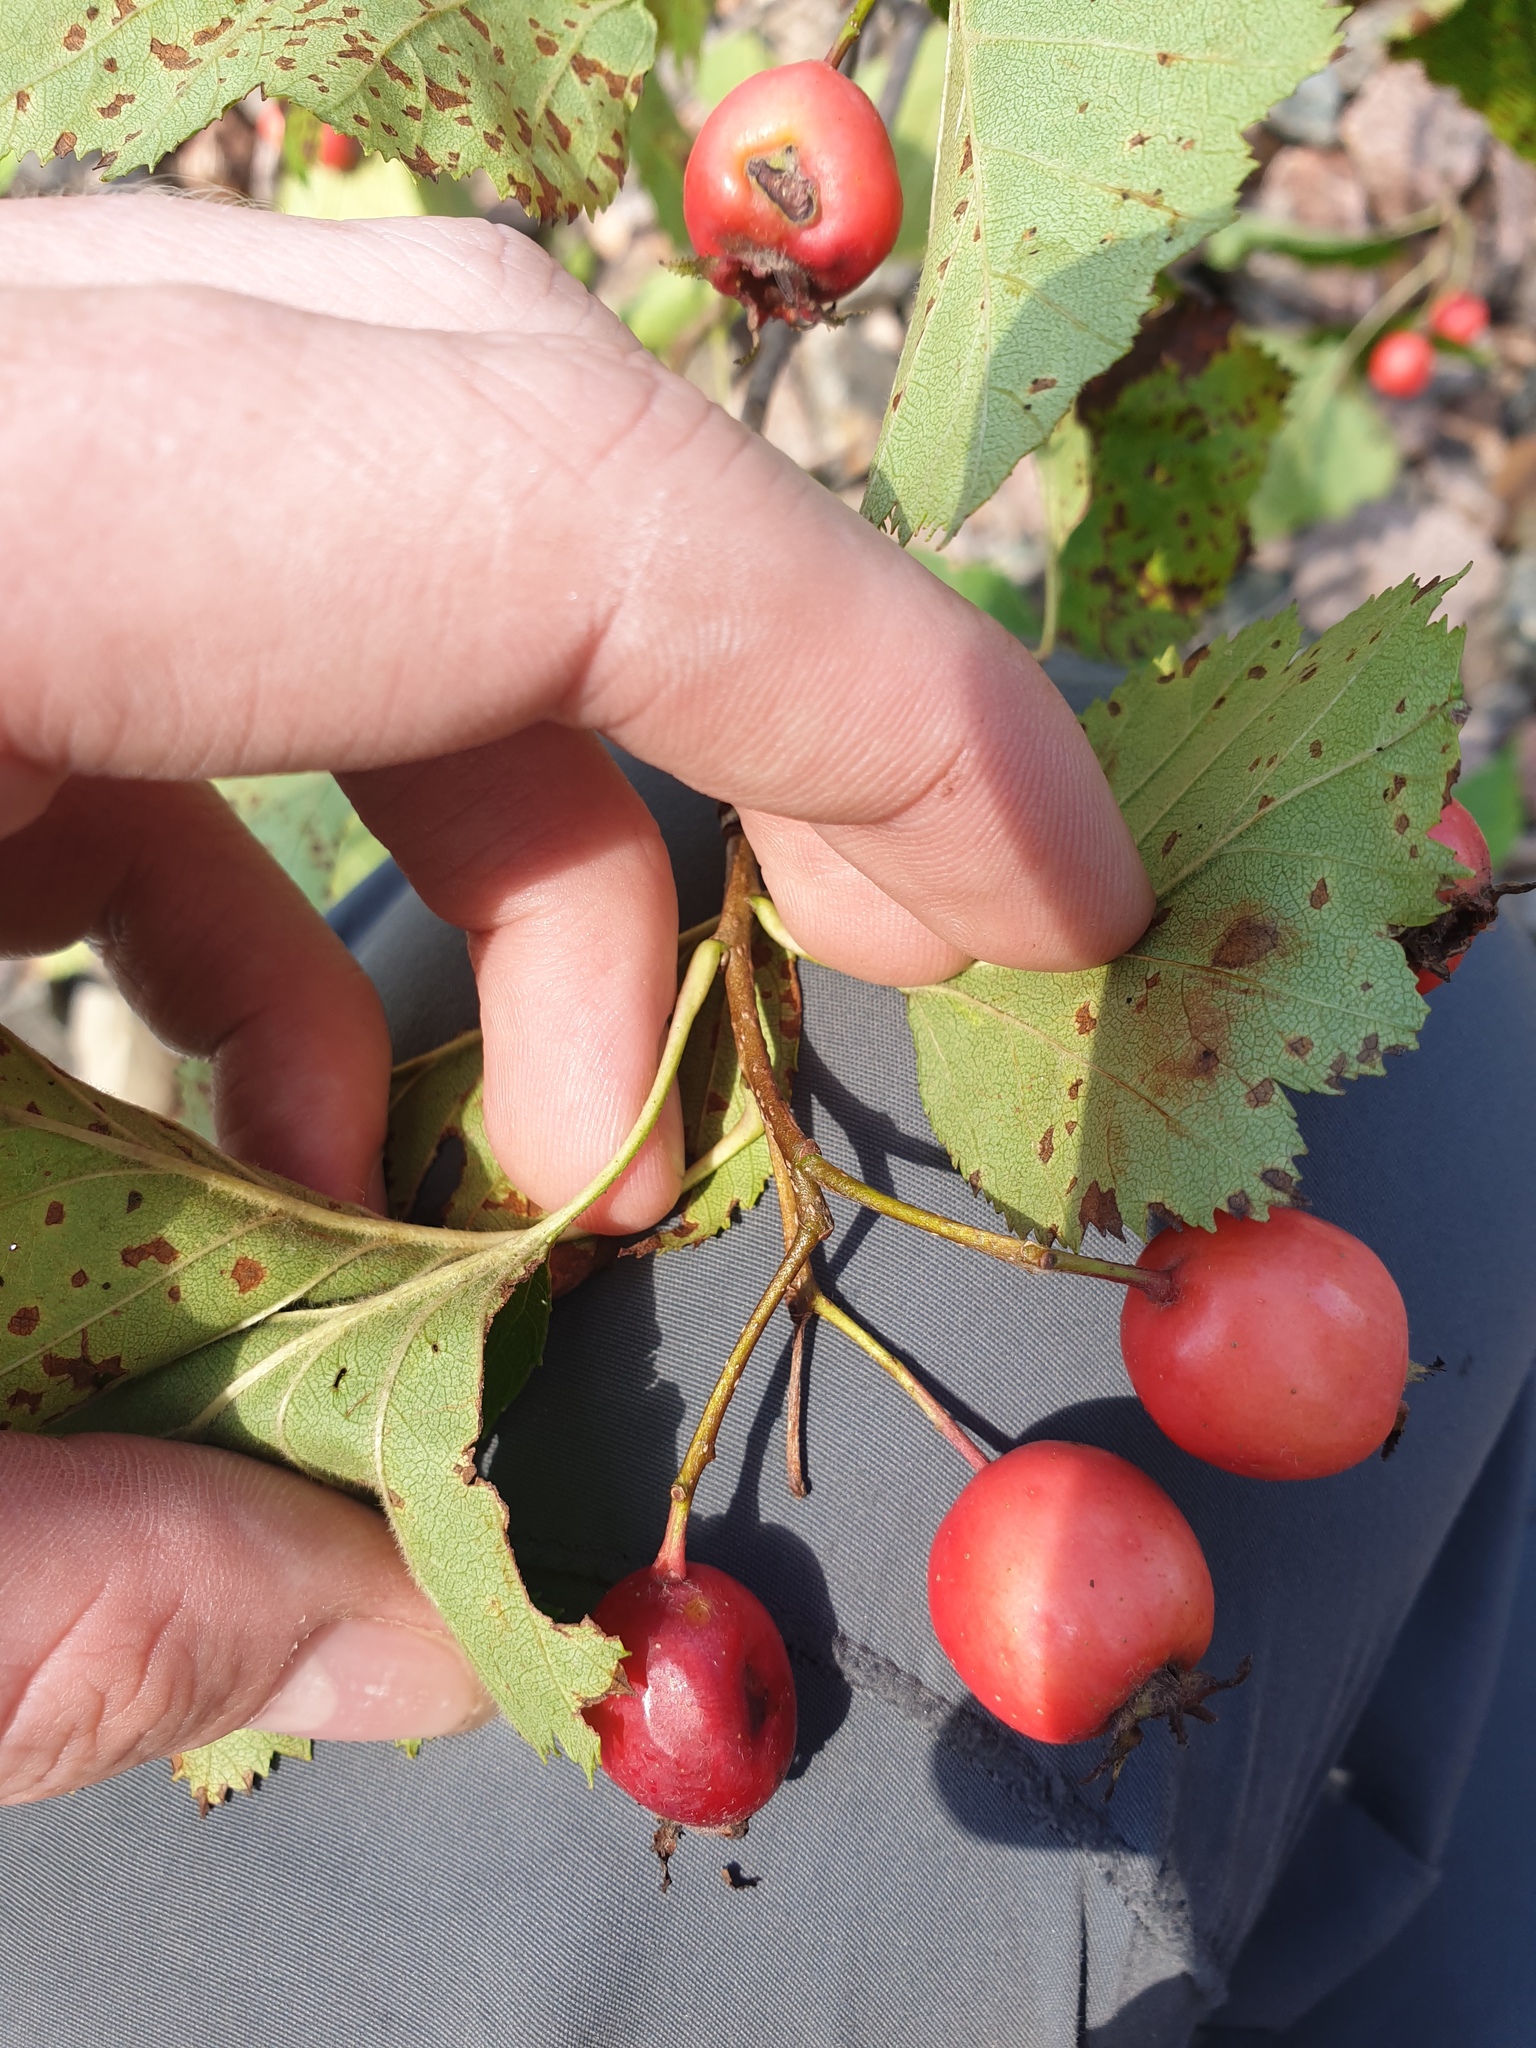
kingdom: Plantae
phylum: Tracheophyta
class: Magnoliopsida
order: Rosales
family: Rosaceae
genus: Crataegus
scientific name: Crataegus submollis
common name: Hairy cockspurthorn
